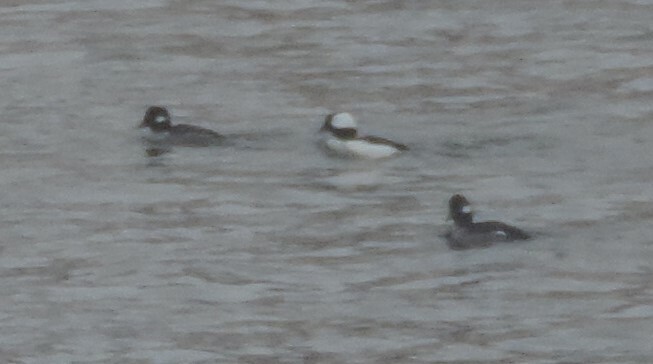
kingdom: Animalia
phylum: Chordata
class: Aves
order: Anseriformes
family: Anatidae
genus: Bucephala
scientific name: Bucephala albeola
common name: Bufflehead
